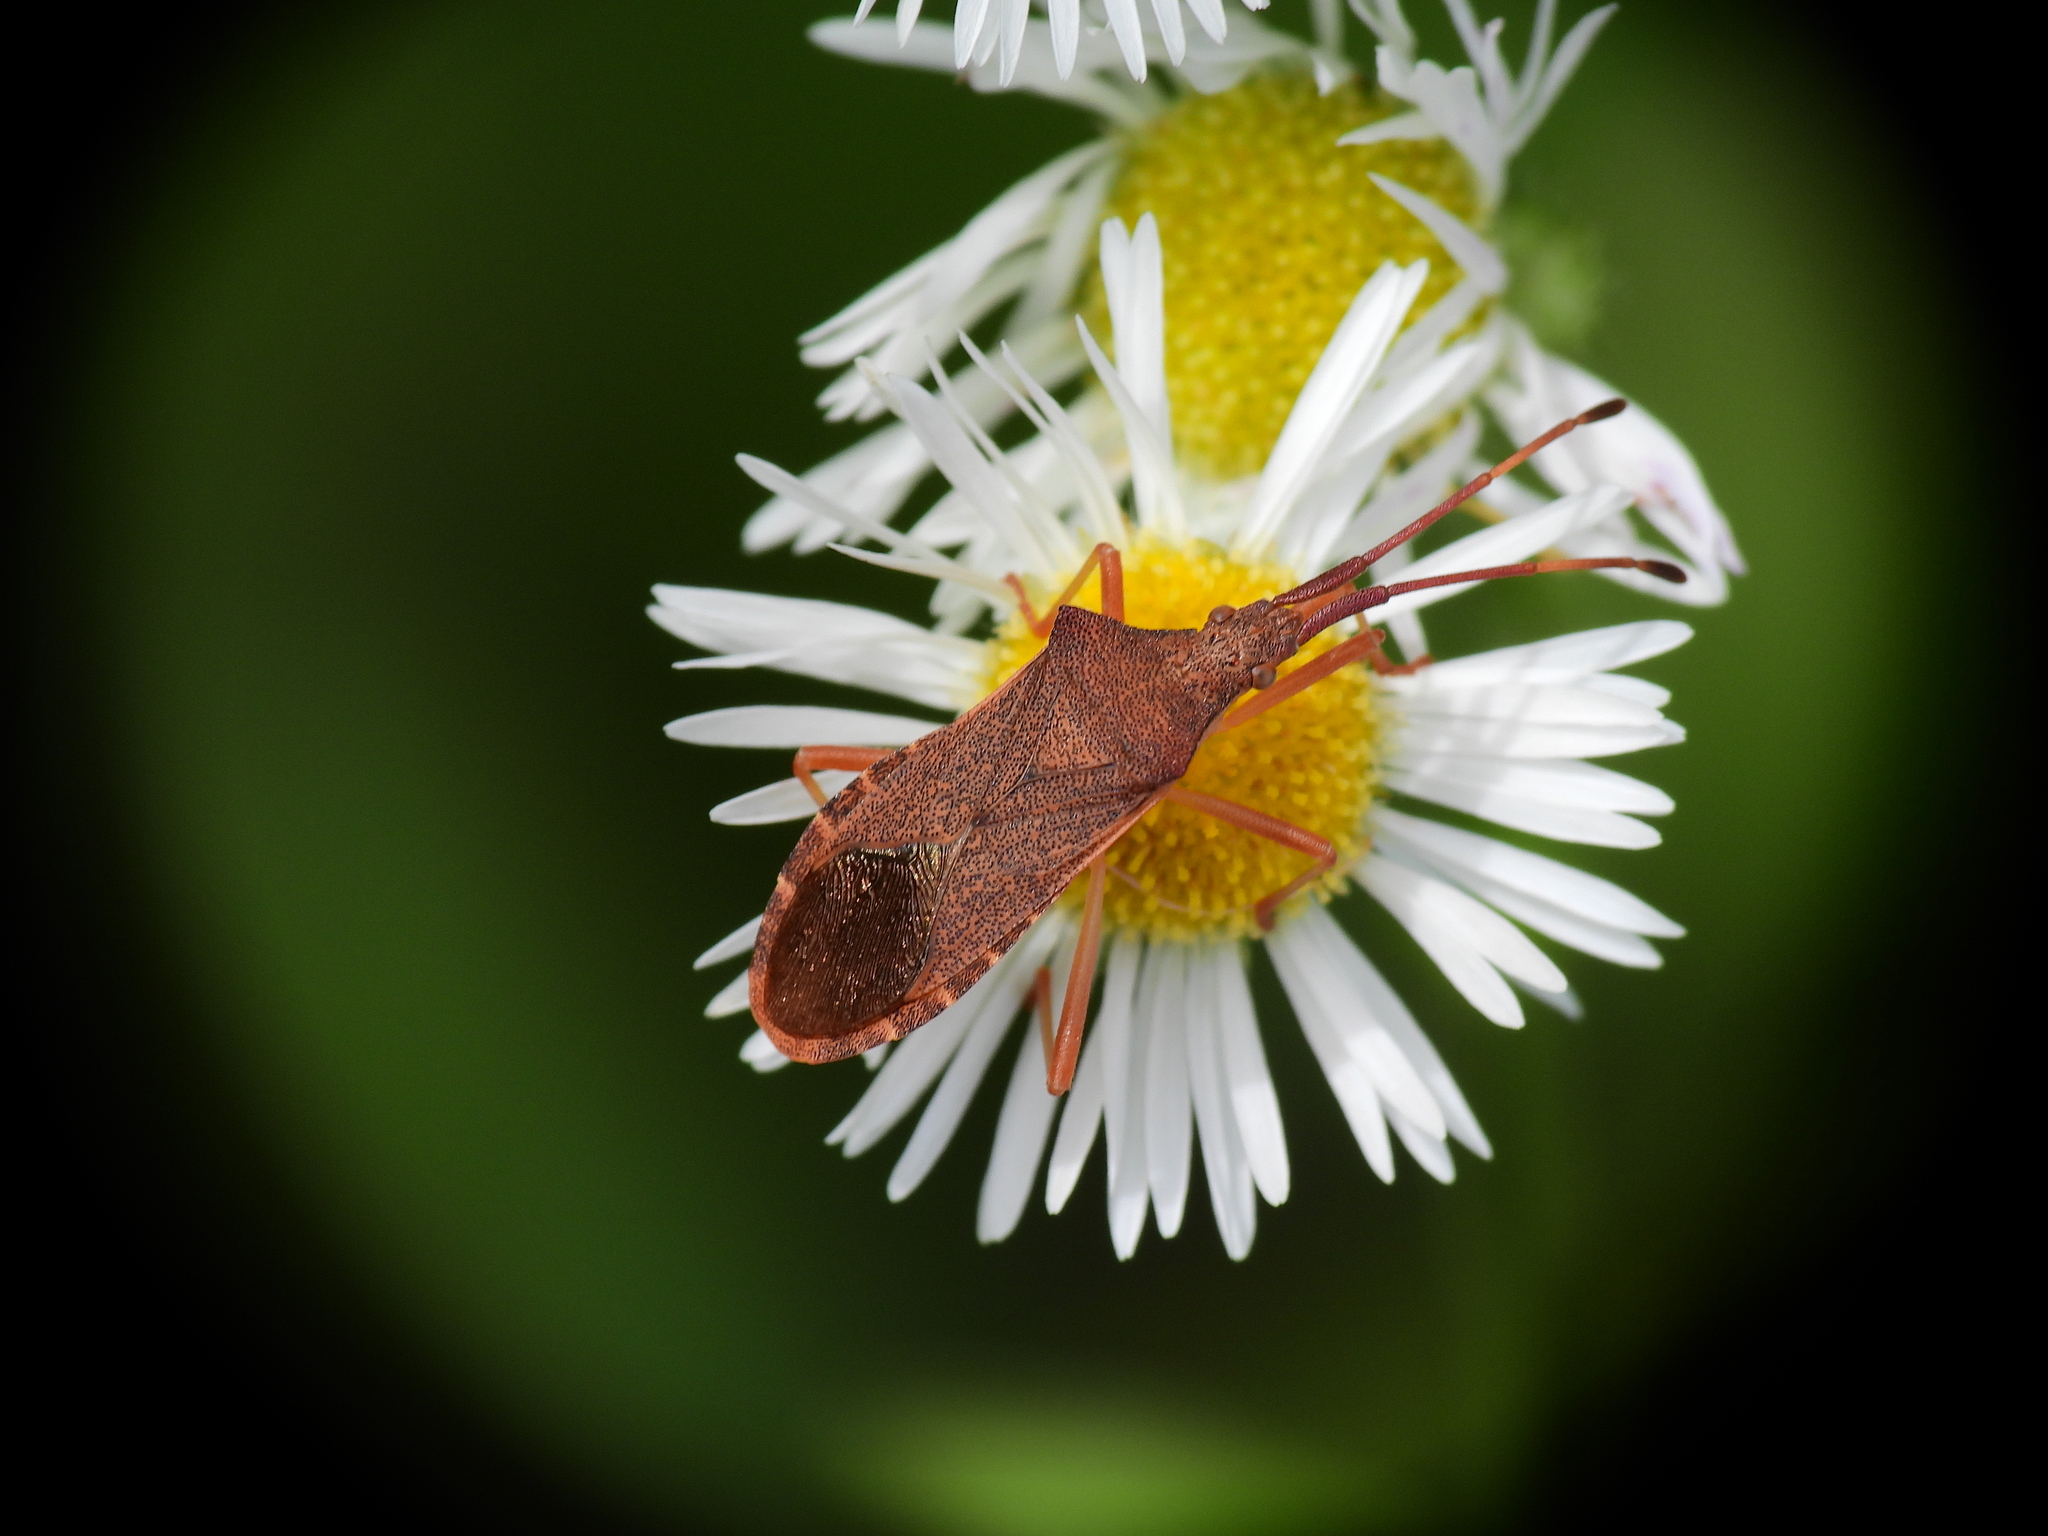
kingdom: Animalia
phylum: Arthropoda
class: Insecta
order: Hemiptera
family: Coreidae
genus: Gonocerus
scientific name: Gonocerus acuteangulatus
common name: Box bug
